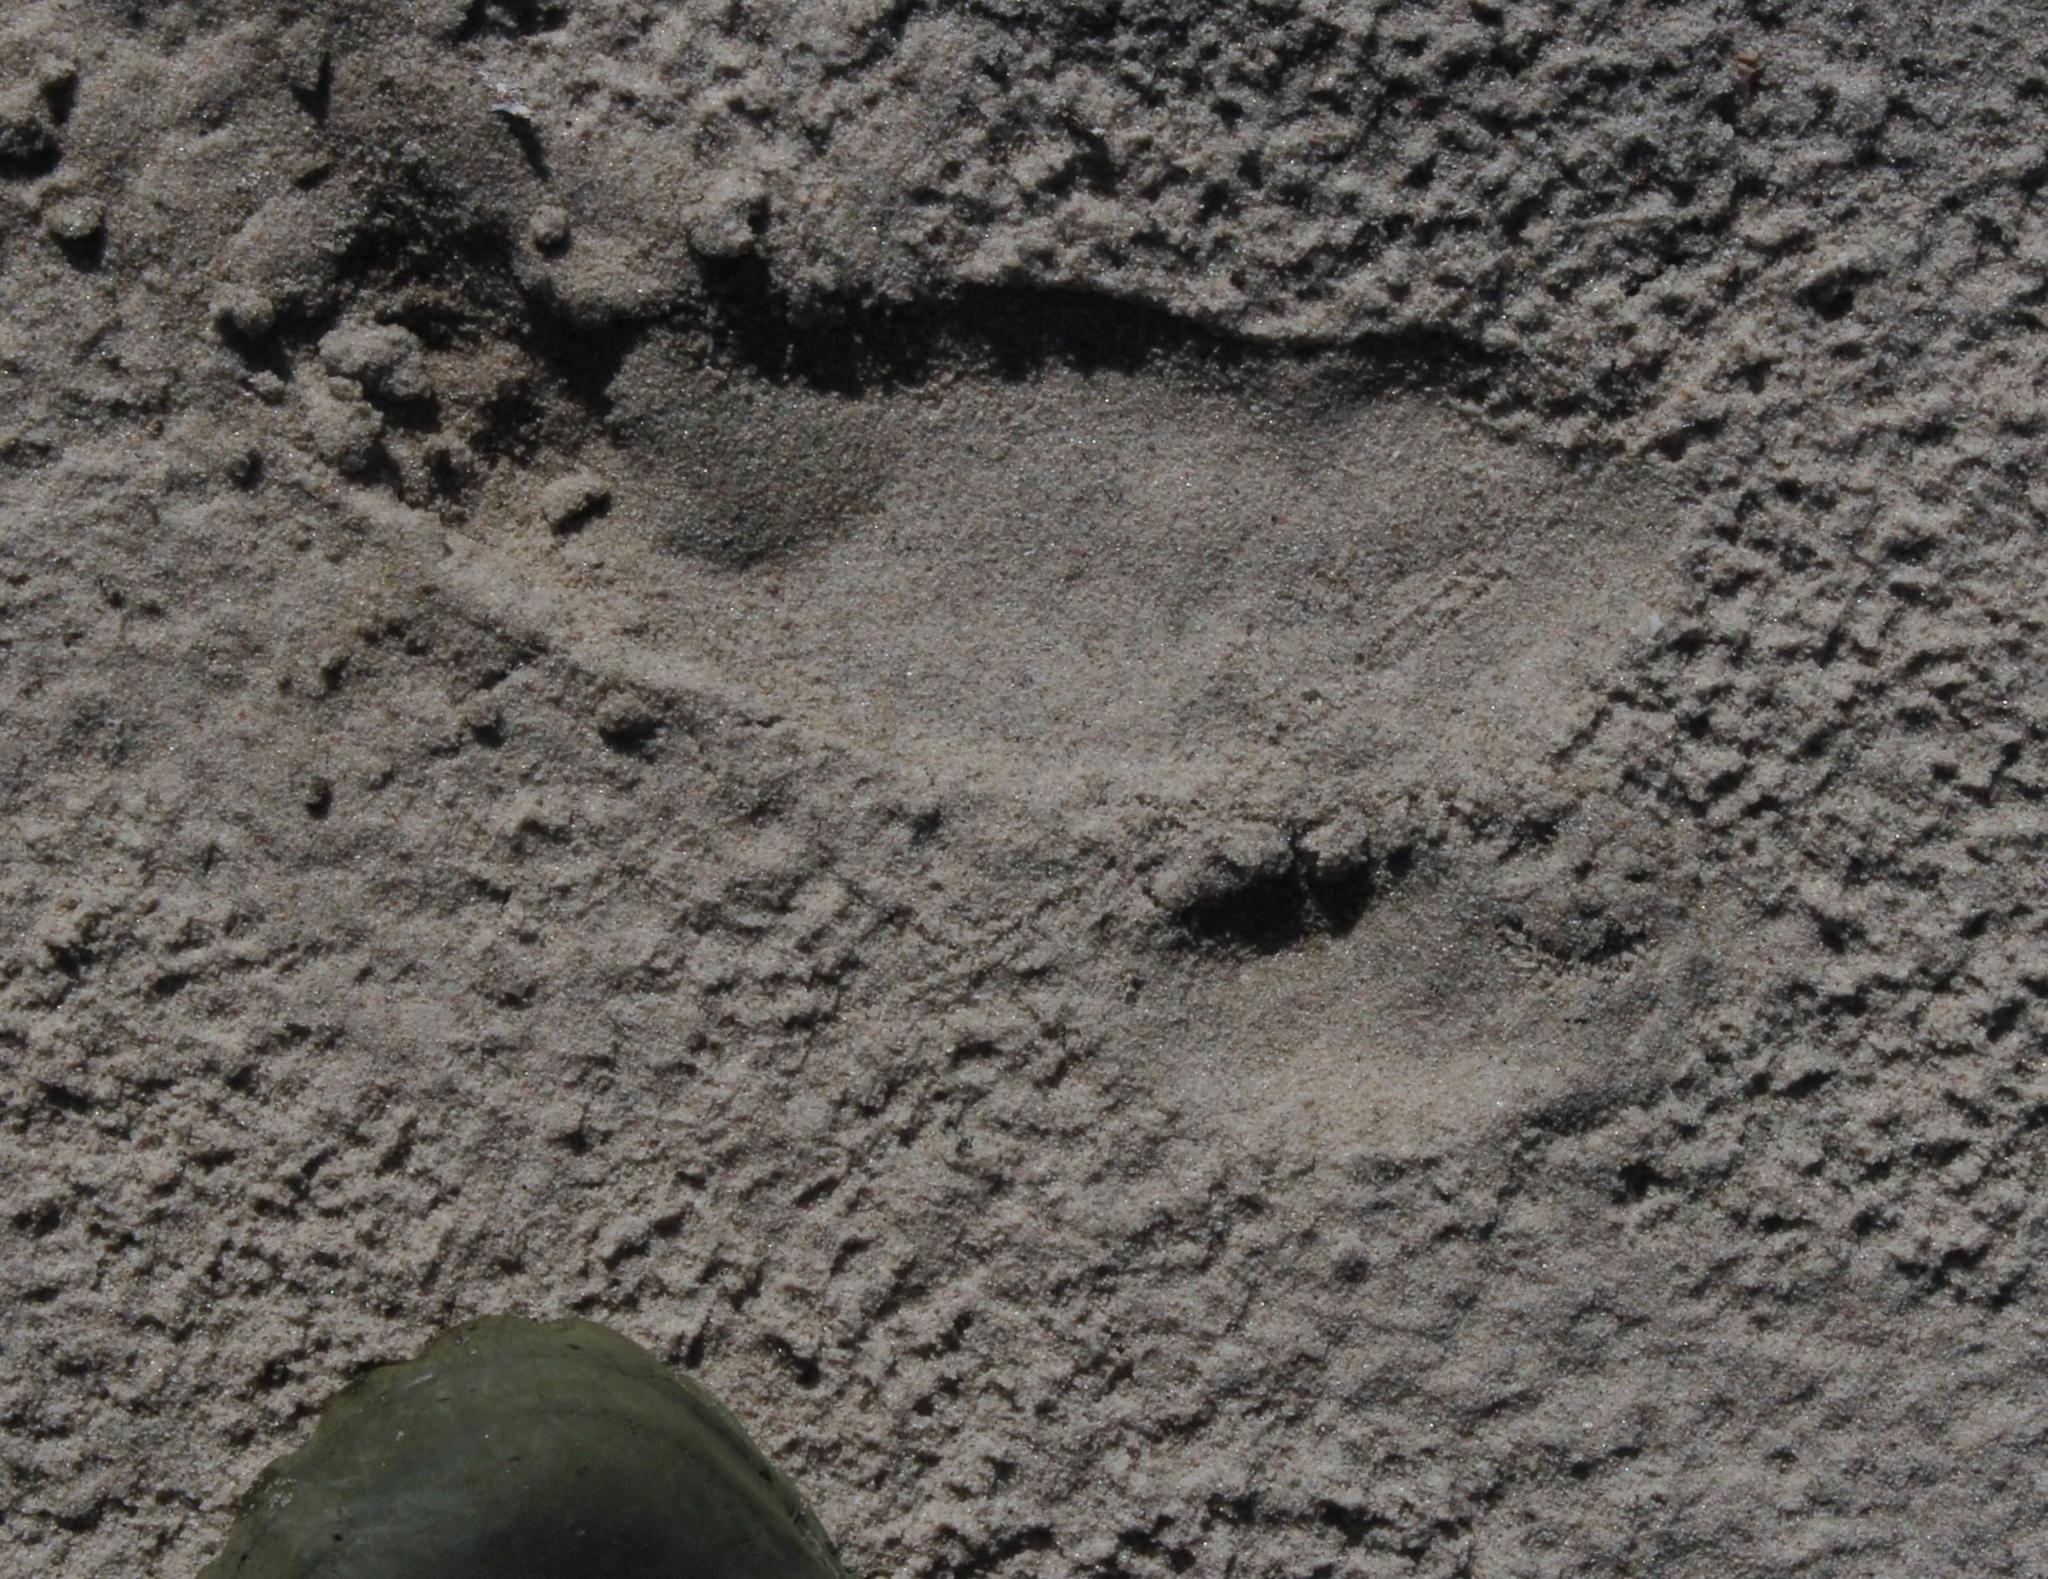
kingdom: Animalia
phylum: Chordata
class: Aves
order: Struthioniformes
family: Struthionidae
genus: Struthio
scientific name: Struthio camelus
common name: Common ostrich
